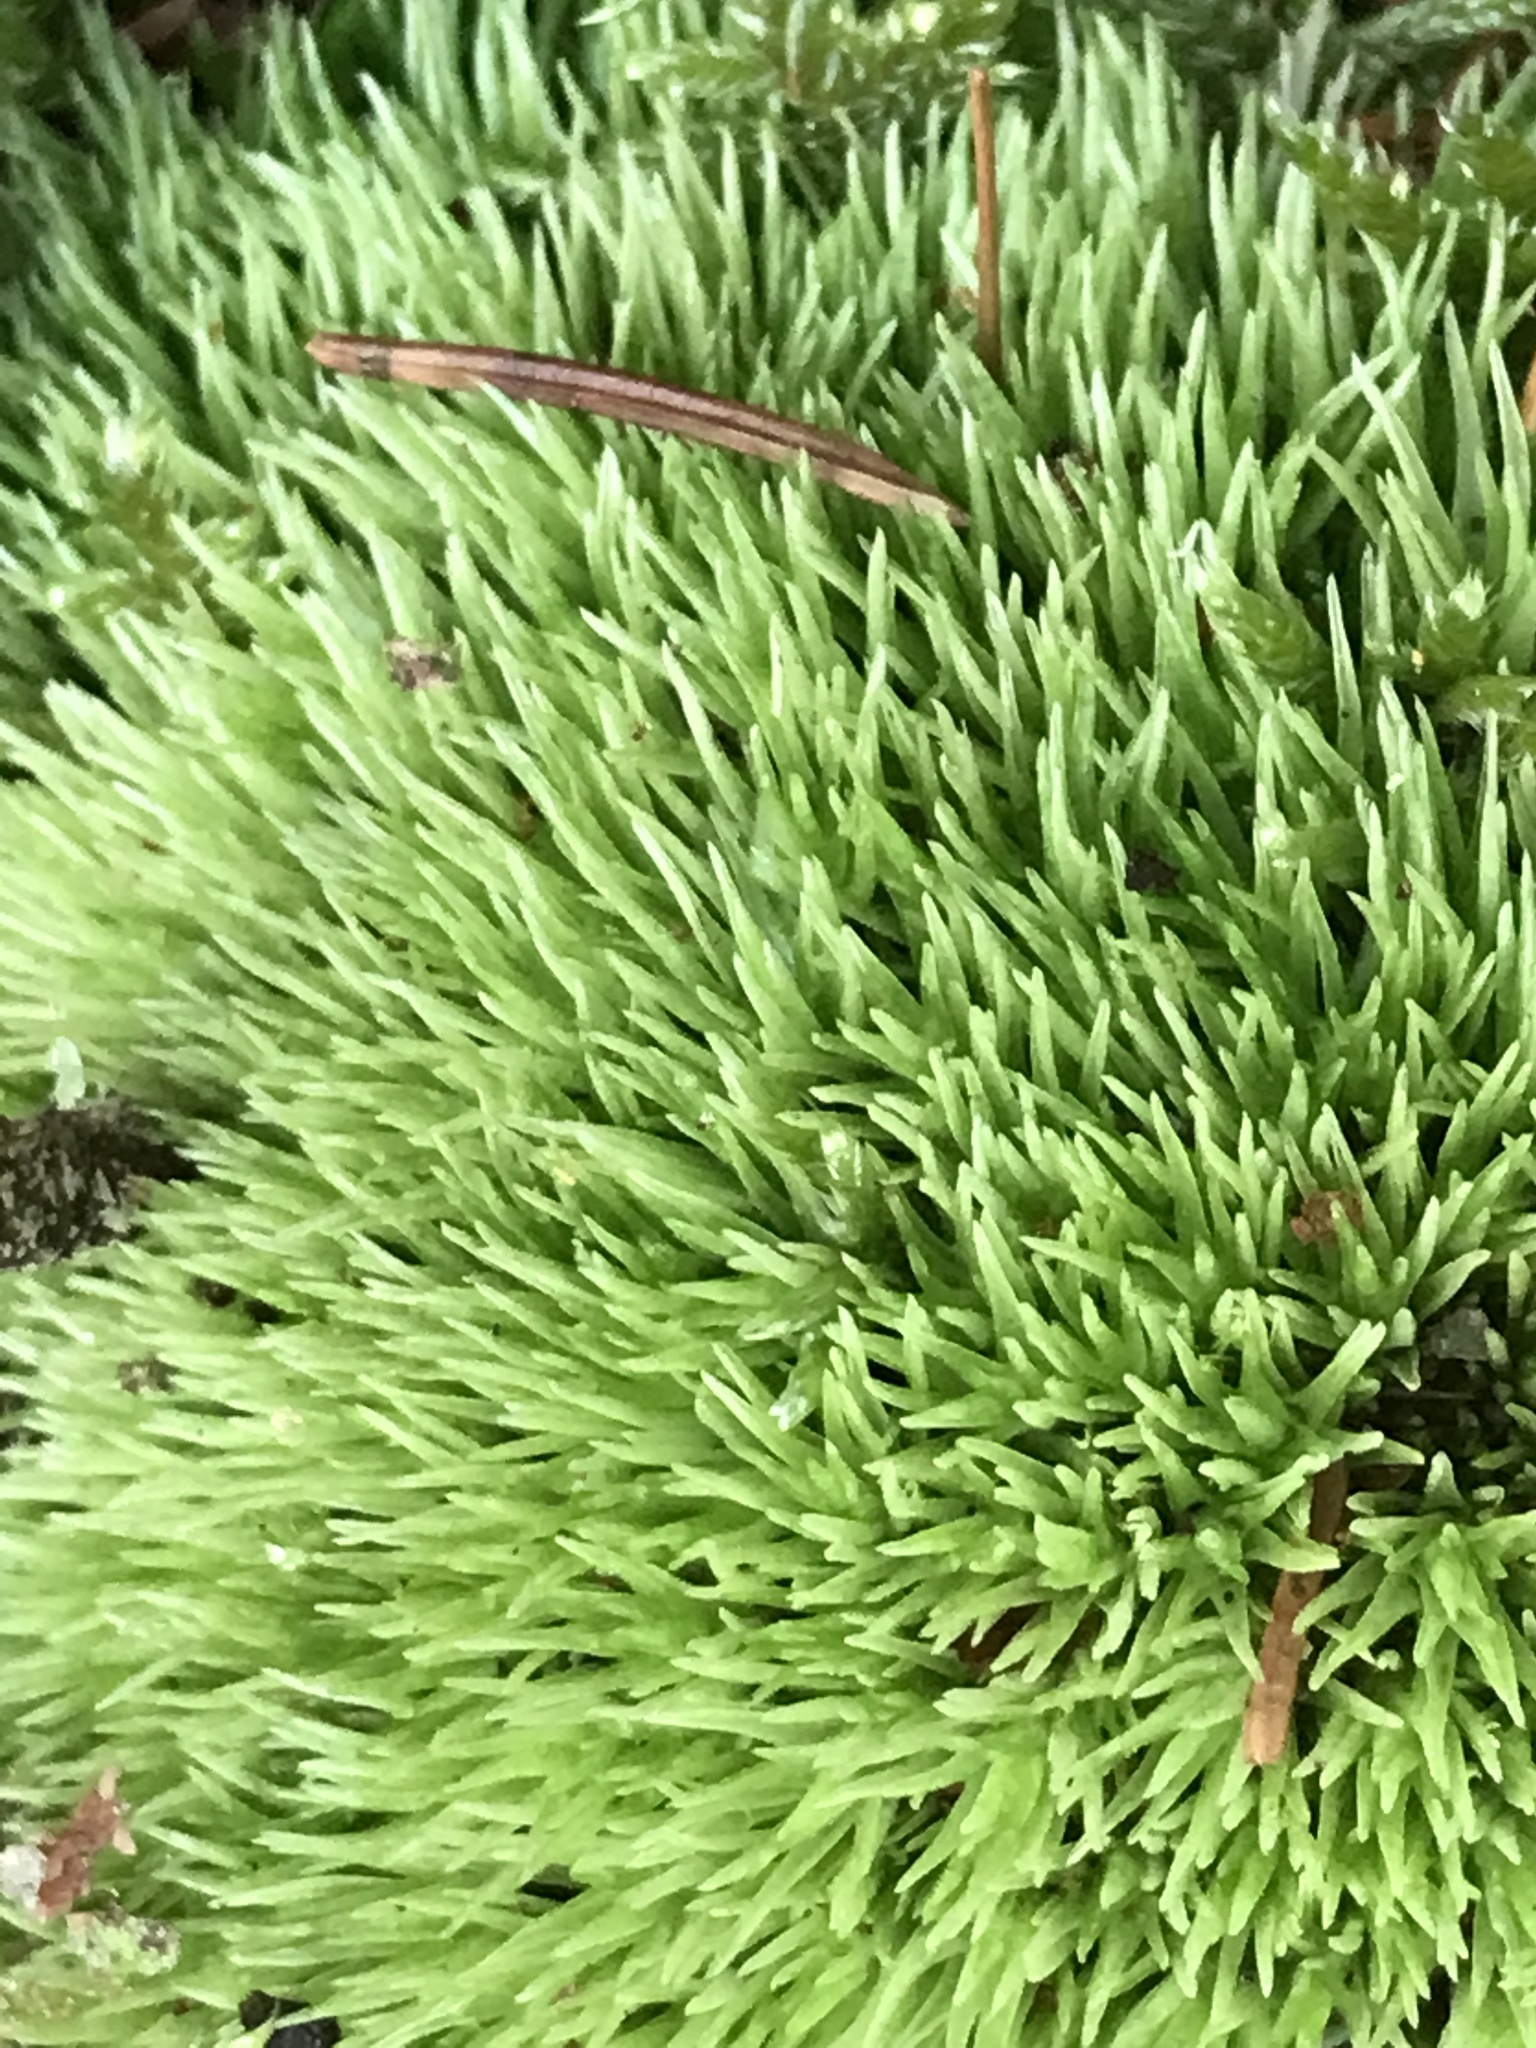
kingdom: Plantae
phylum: Bryophyta
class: Bryopsida
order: Dicranales
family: Leucobryaceae
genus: Leucobryum
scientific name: Leucobryum glaucum
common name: Large white-moss
